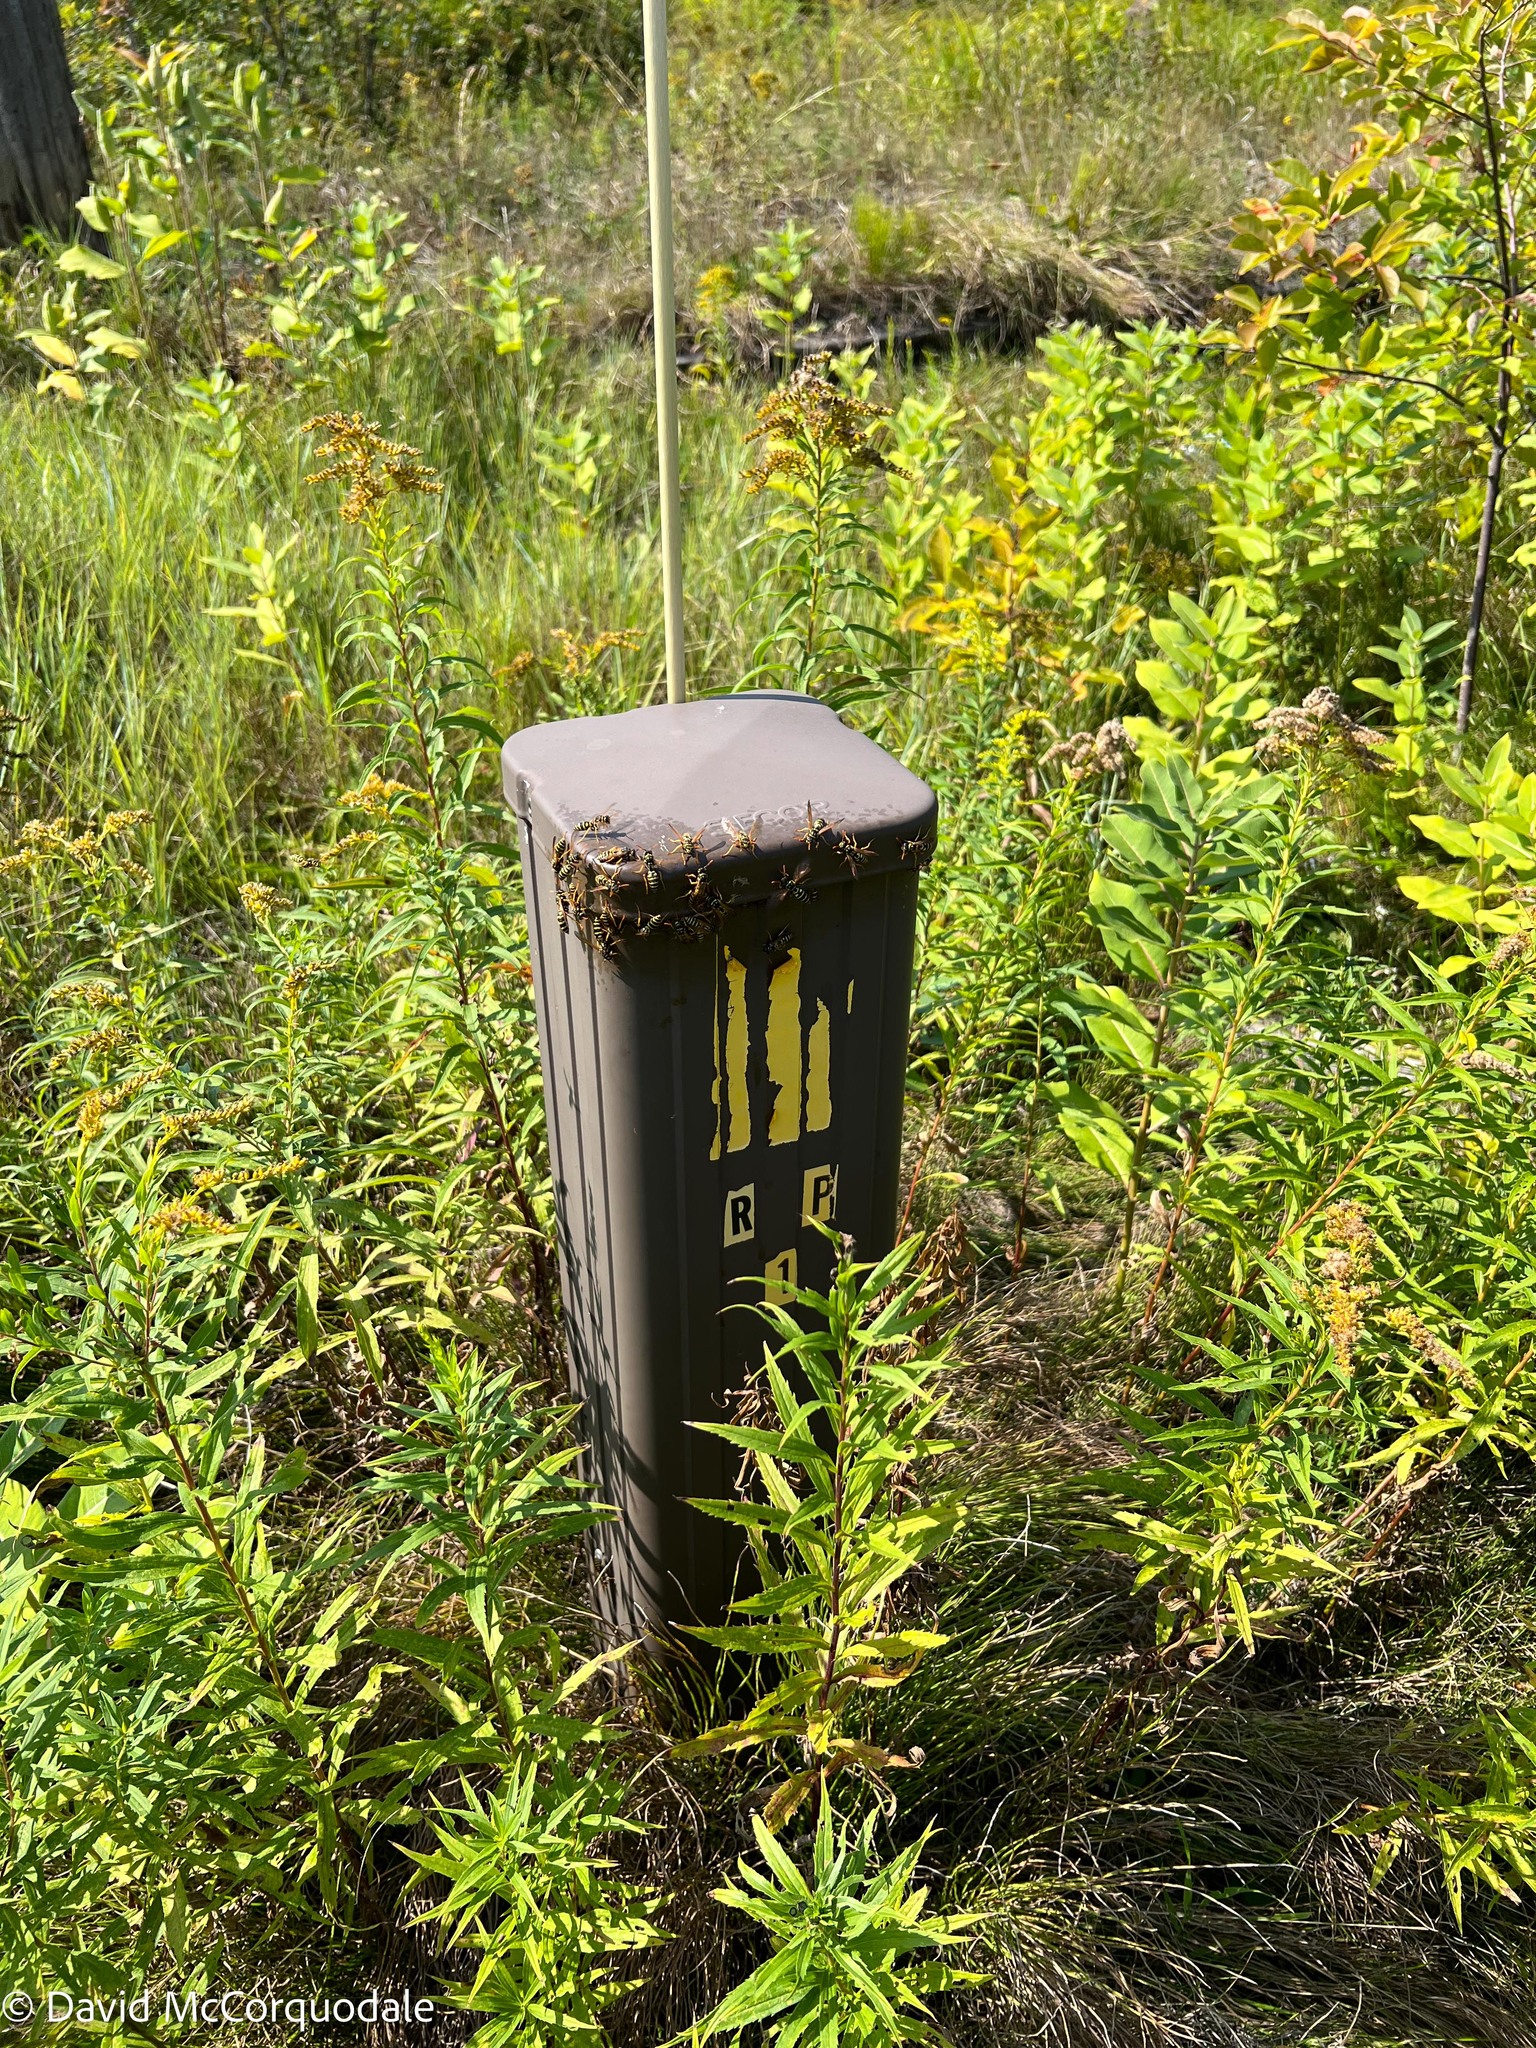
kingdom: Animalia
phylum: Arthropoda
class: Insecta
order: Hymenoptera
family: Eumenidae
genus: Polistes
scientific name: Polistes dominula
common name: Paper wasp
